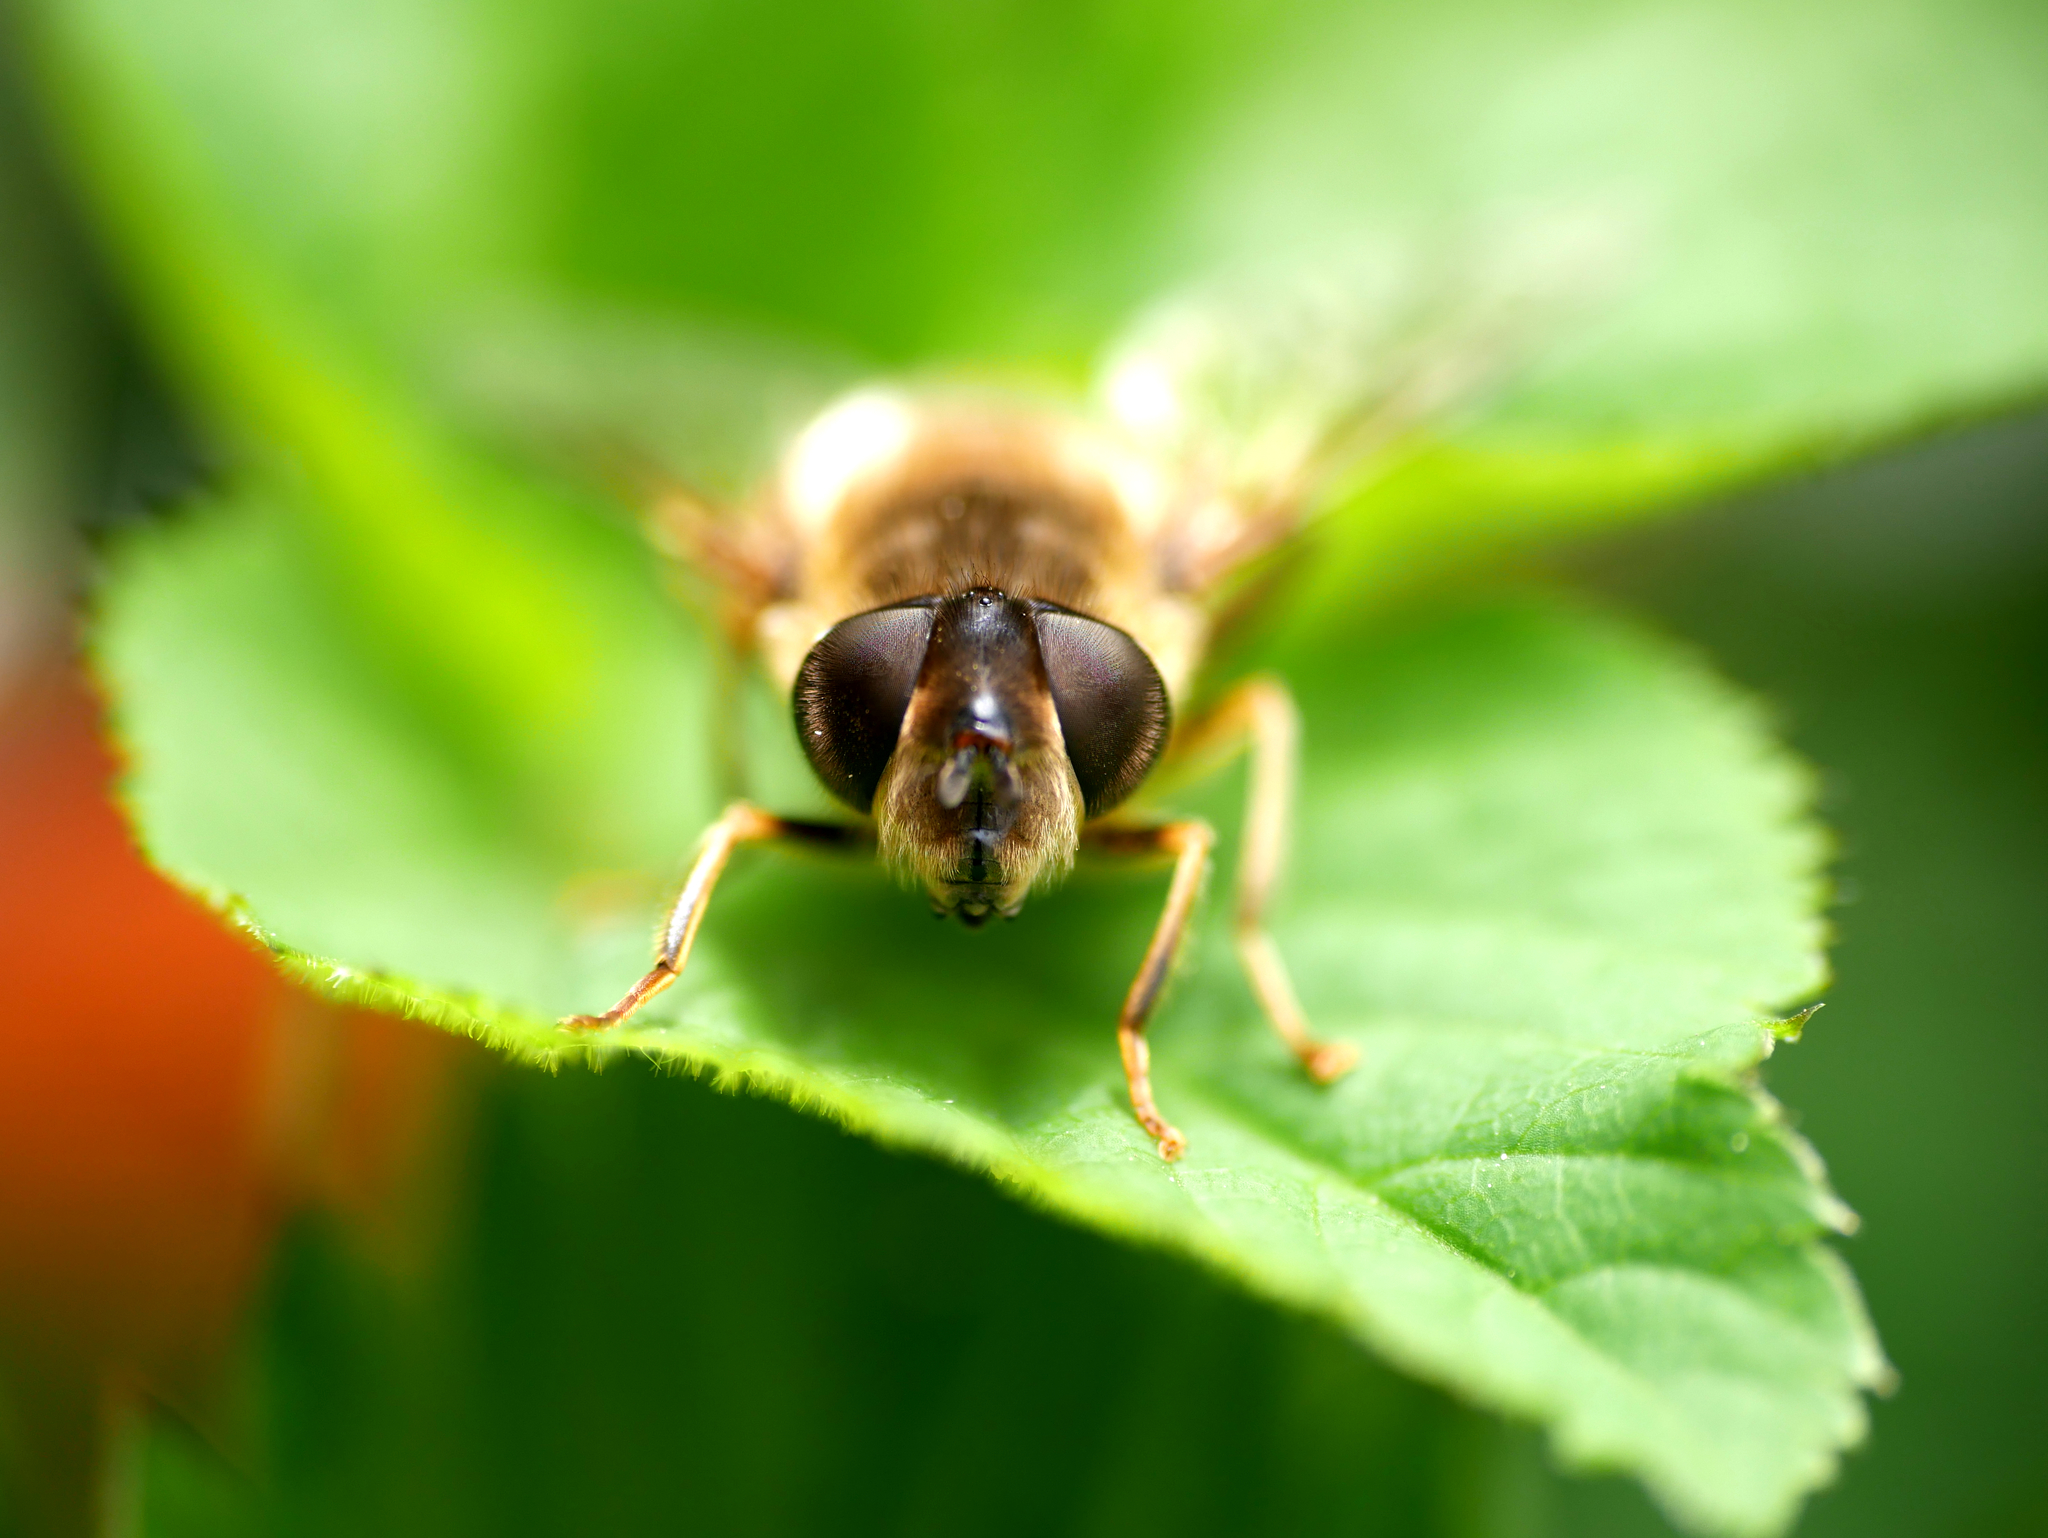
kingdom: Animalia
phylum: Arthropoda
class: Insecta
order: Diptera
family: Syrphidae
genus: Eristalis
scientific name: Eristalis pertinax
